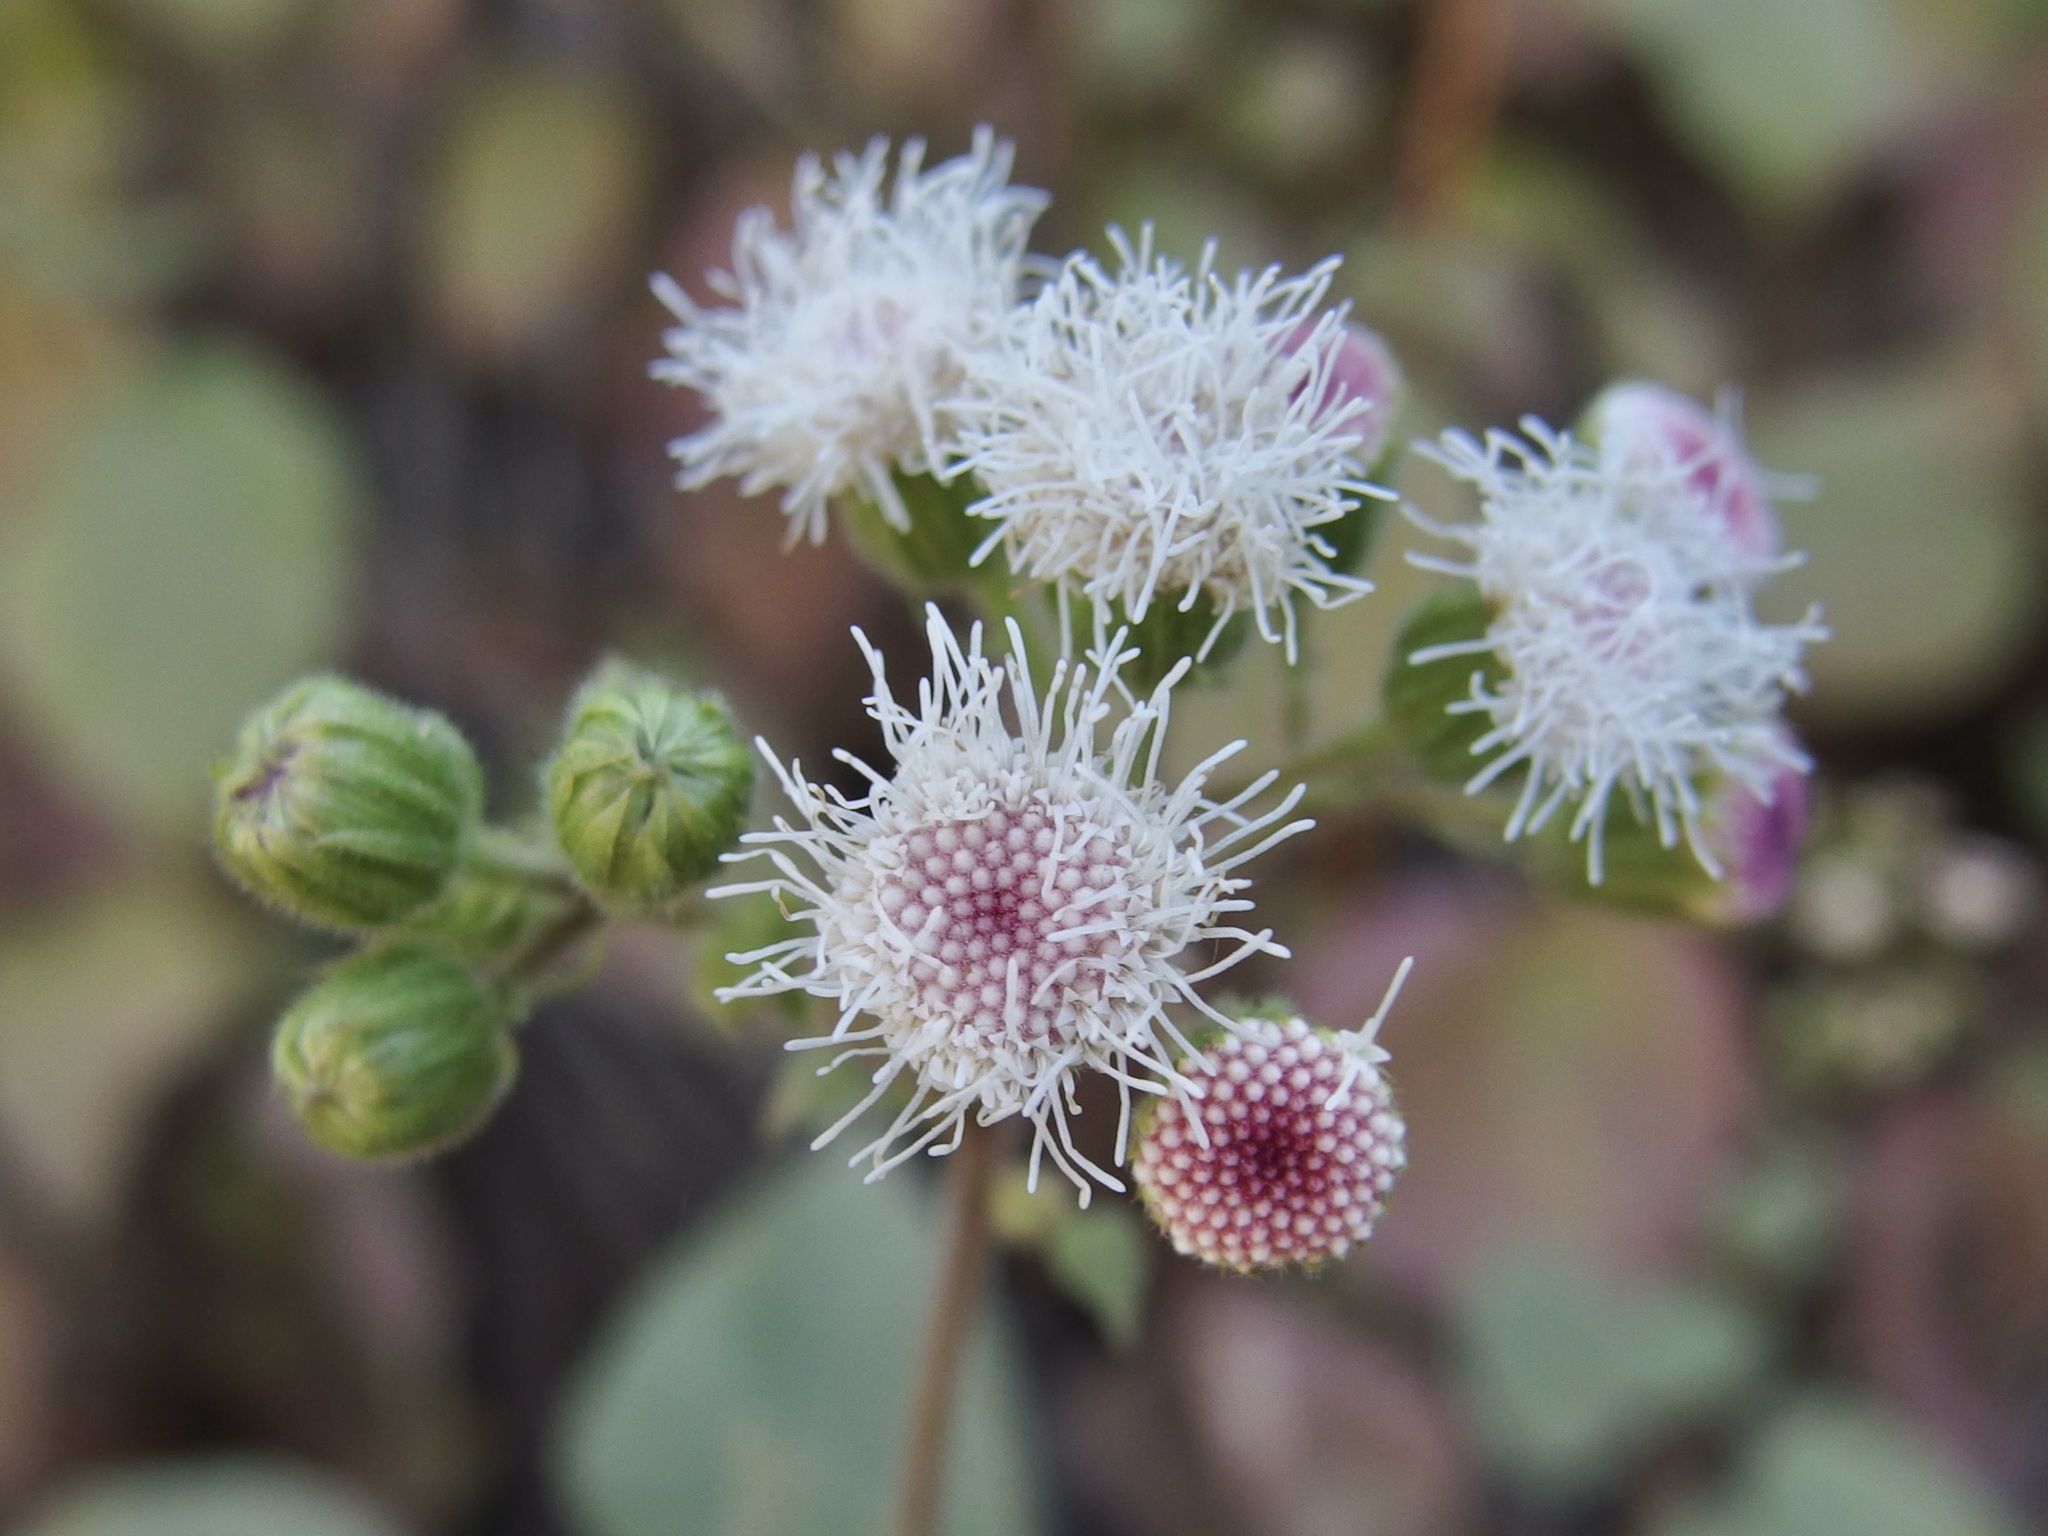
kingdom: Plantae
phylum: Tracheophyta
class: Magnoliopsida
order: Asterales
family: Asteraceae
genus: Ageratina
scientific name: Ageratina viscosissima
